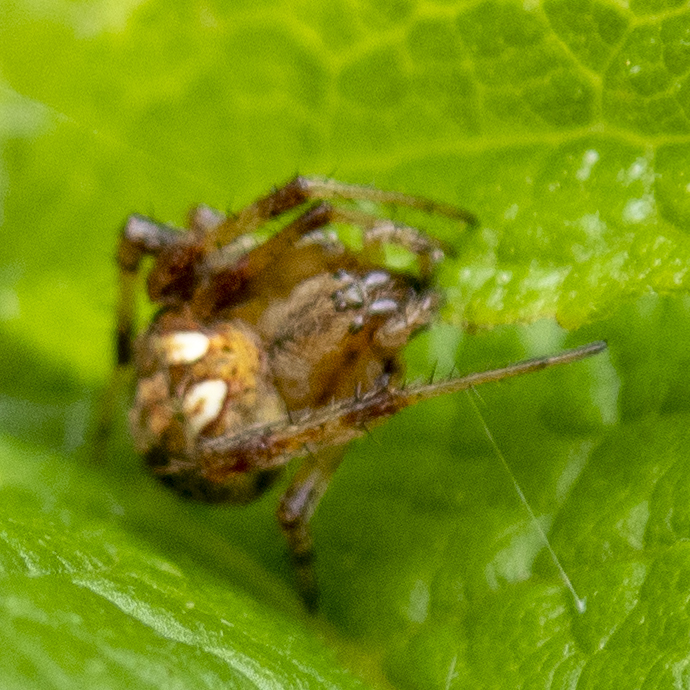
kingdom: Animalia
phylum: Arthropoda
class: Arachnida
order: Araneae
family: Araneidae
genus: Neoscona
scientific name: Neoscona arabesca
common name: Orb weavers
